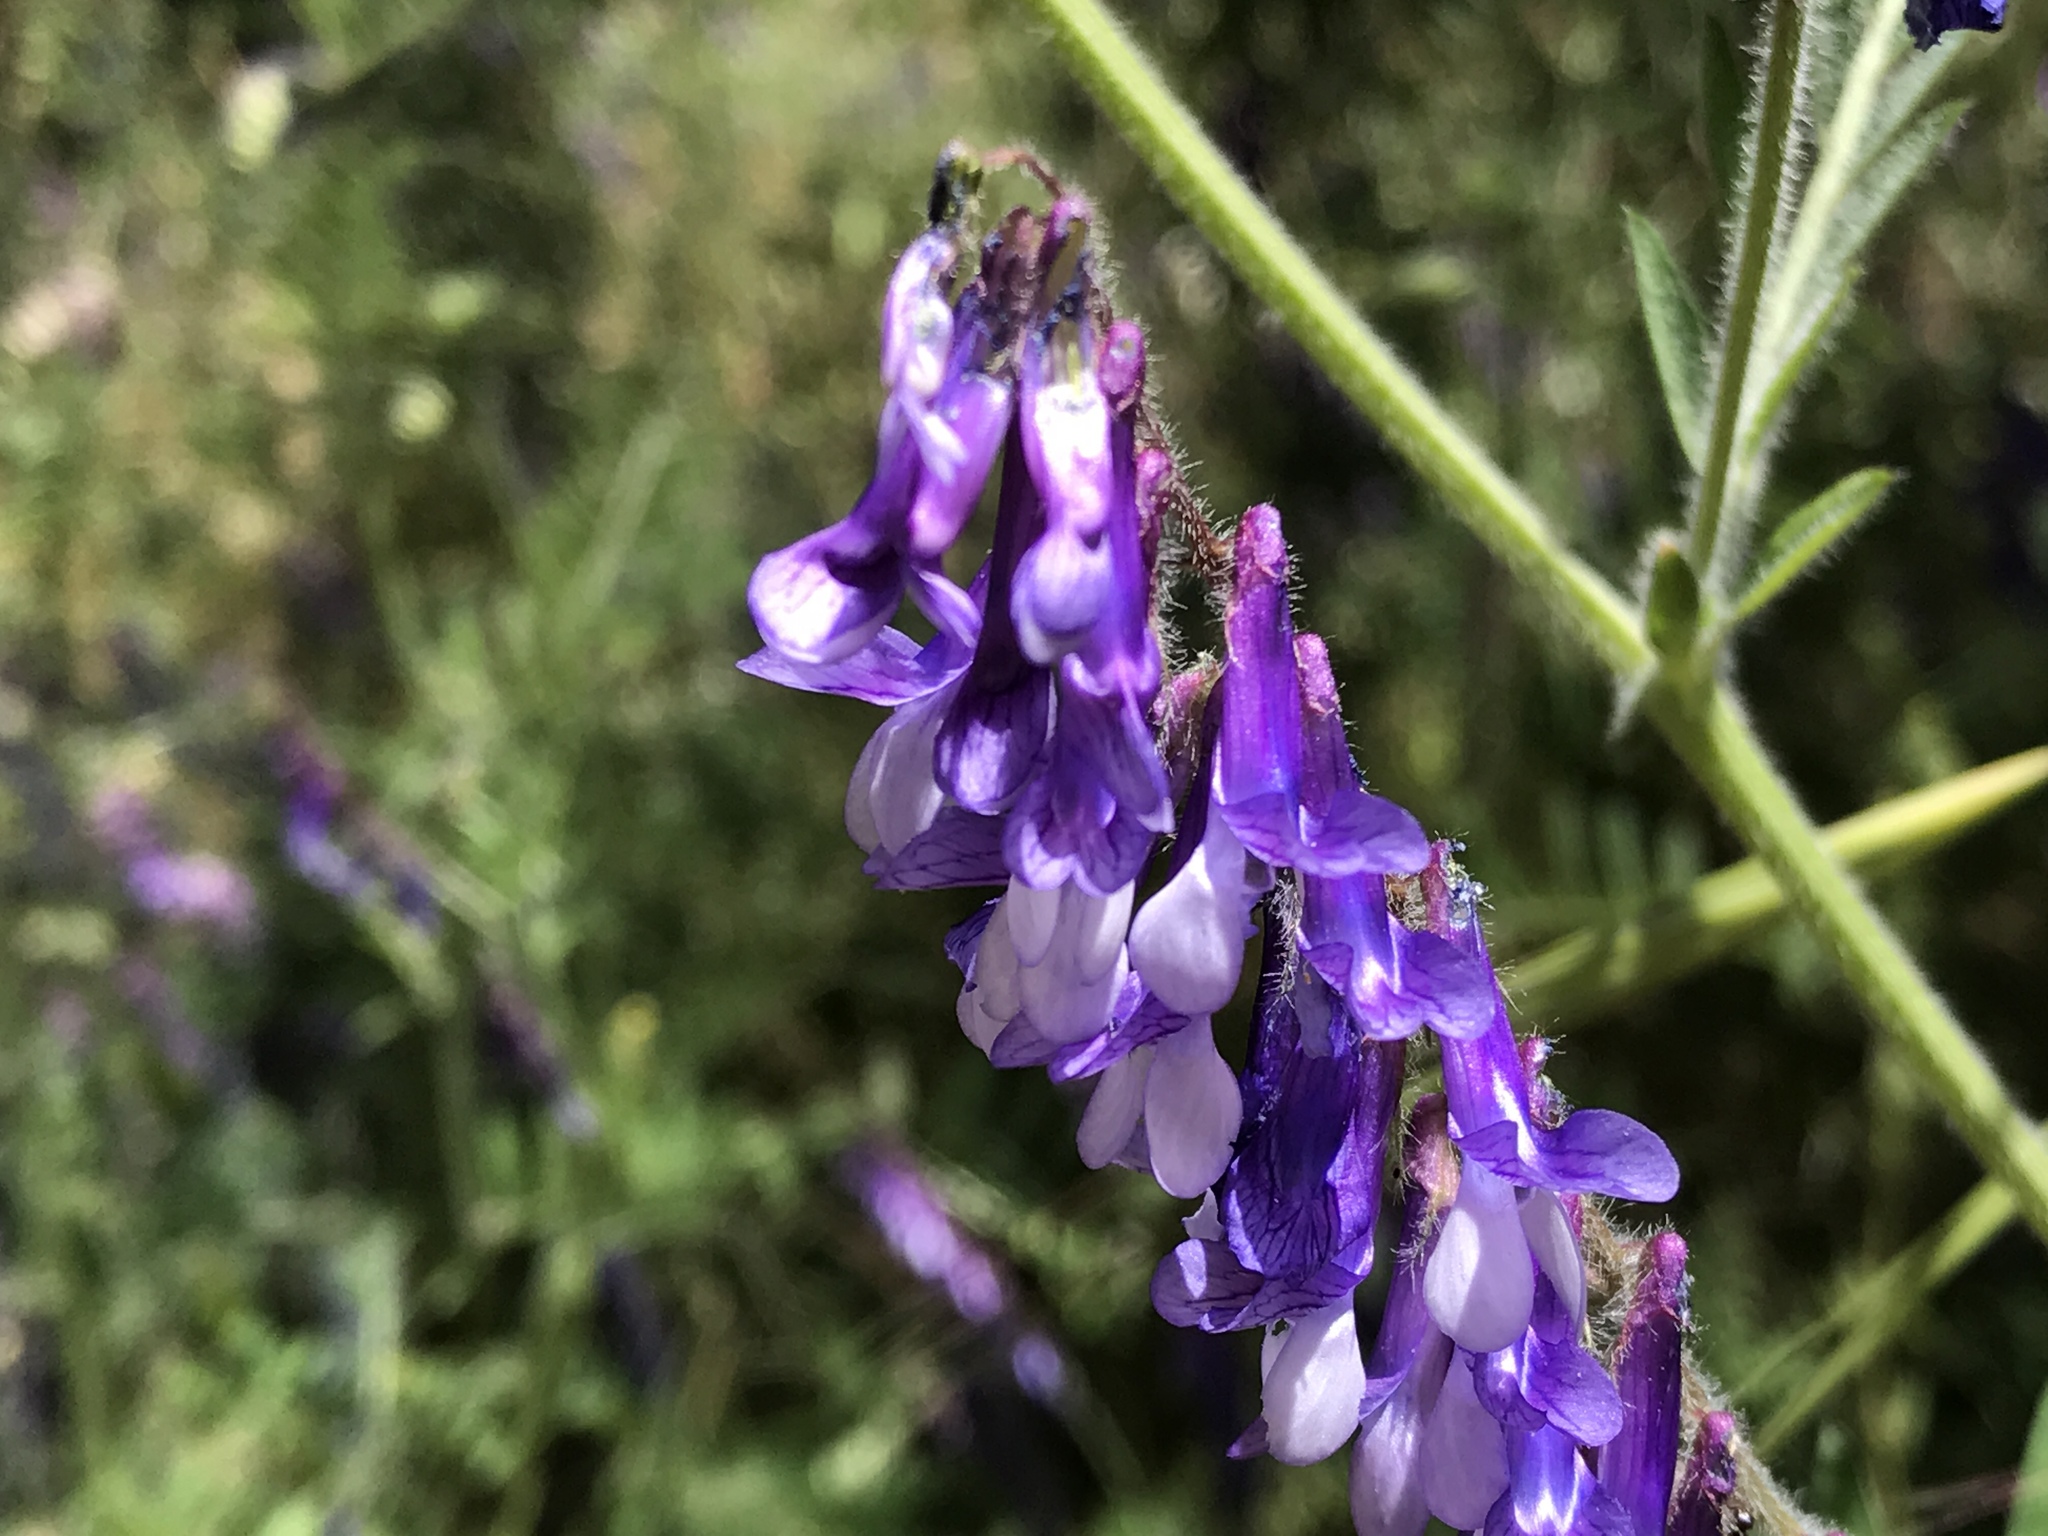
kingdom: Plantae
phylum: Tracheophyta
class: Magnoliopsida
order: Fabales
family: Fabaceae
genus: Vicia
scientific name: Vicia villosa
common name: Fodder vetch
